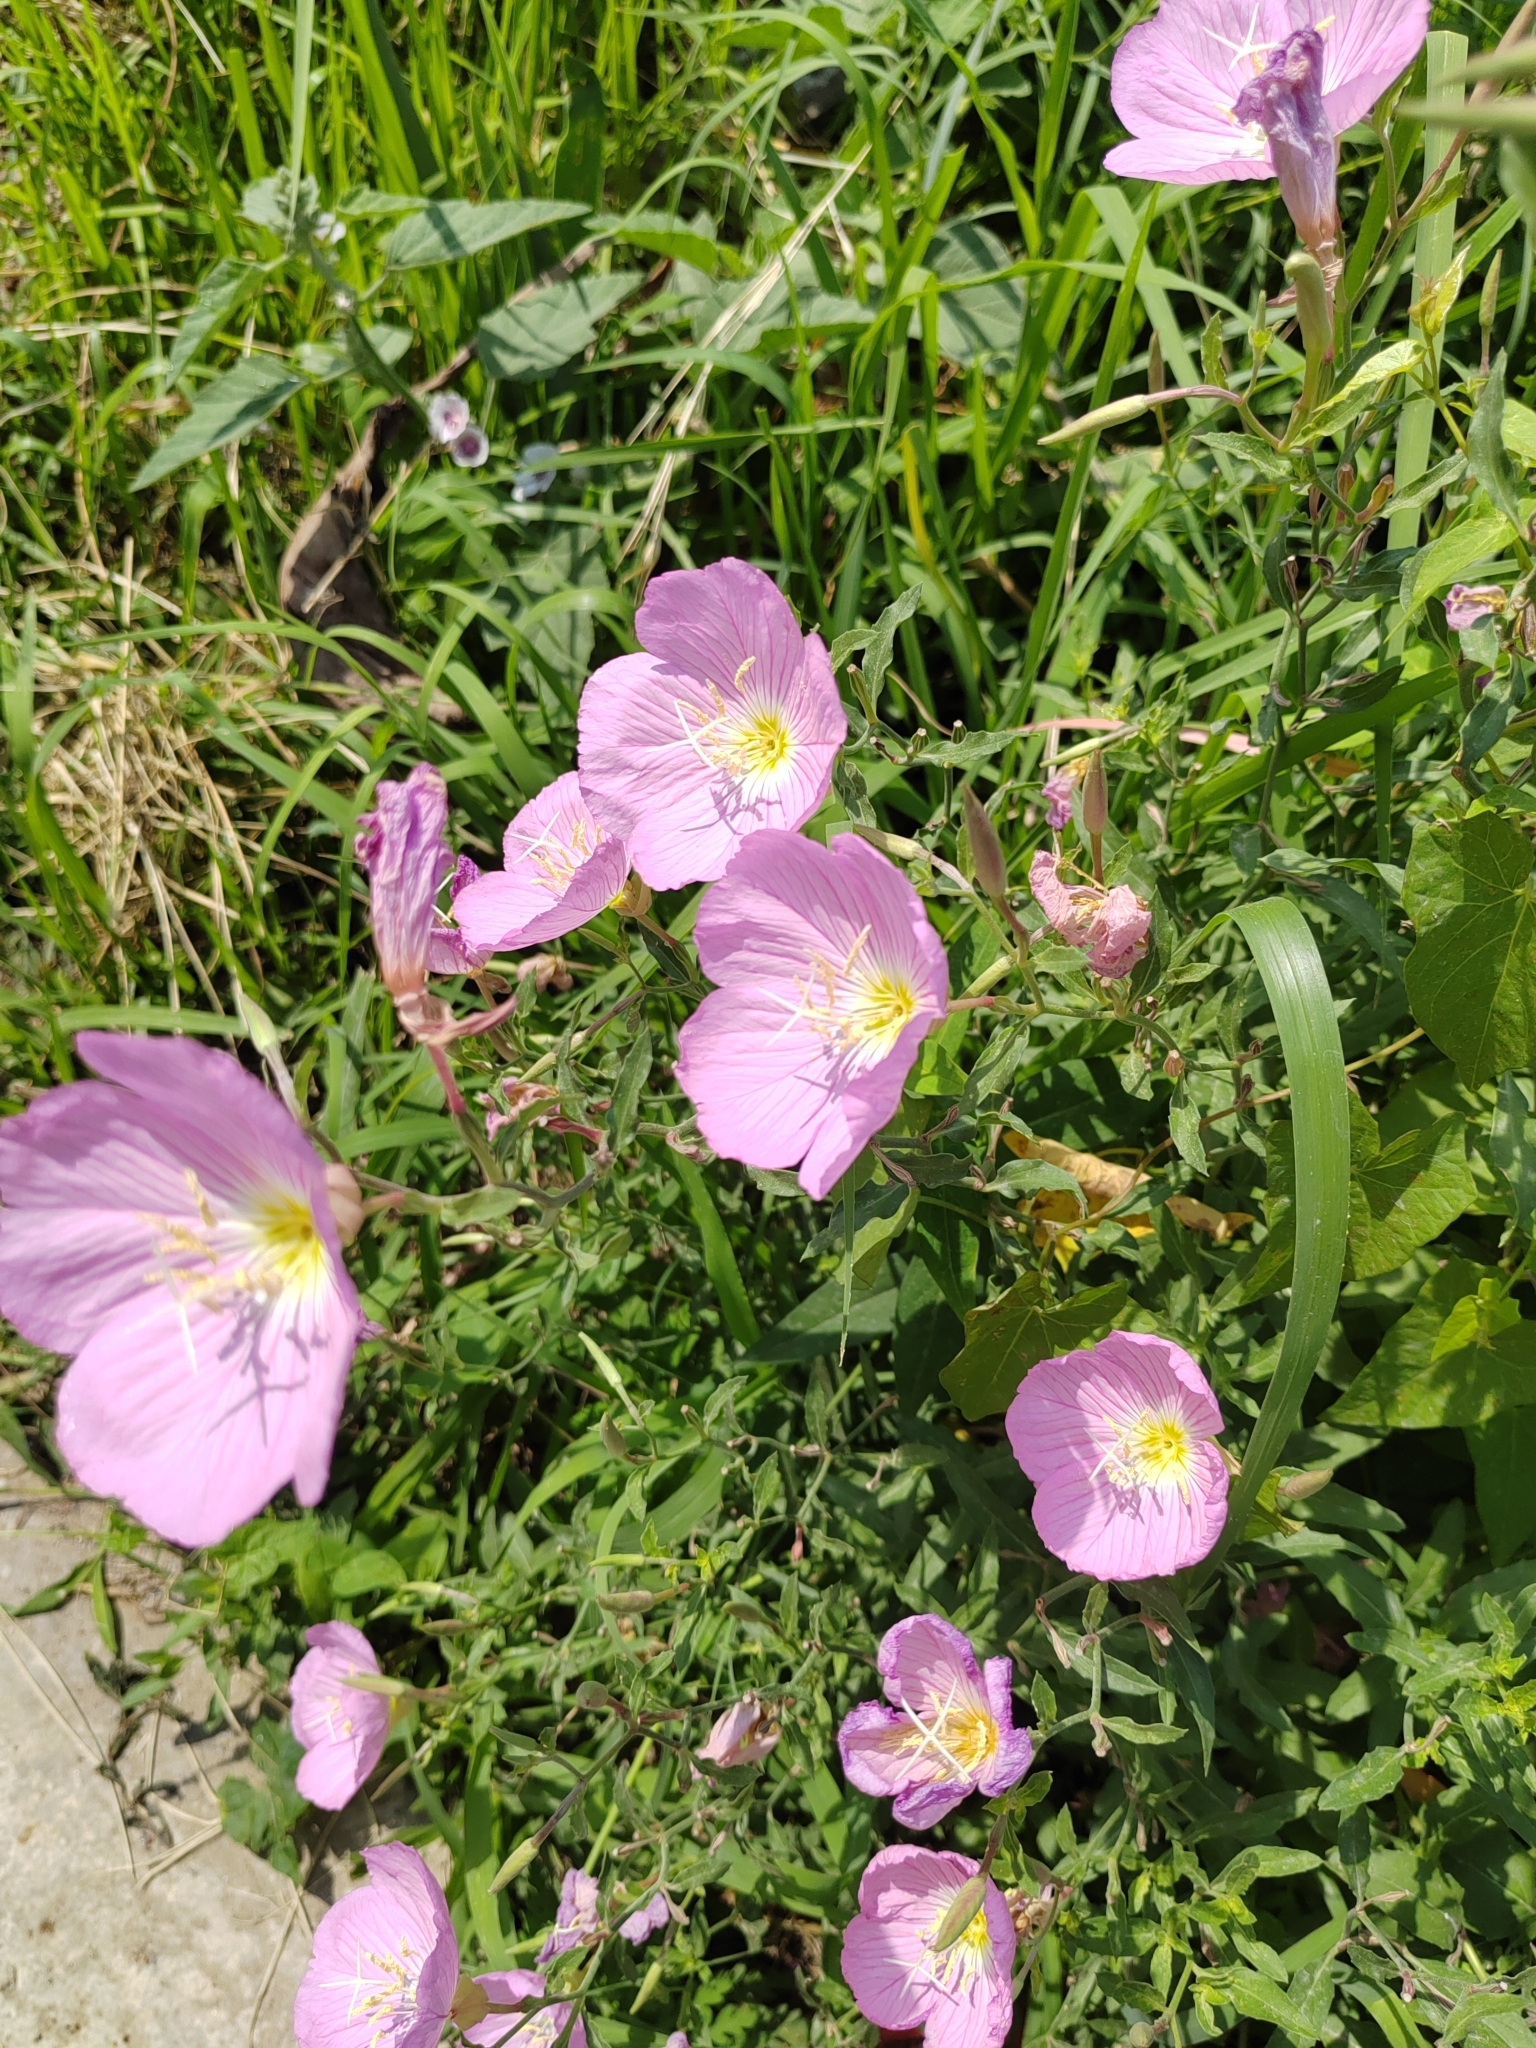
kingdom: Plantae
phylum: Tracheophyta
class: Magnoliopsida
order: Myrtales
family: Onagraceae
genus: Oenothera
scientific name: Oenothera speciosa
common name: White evening-primrose
